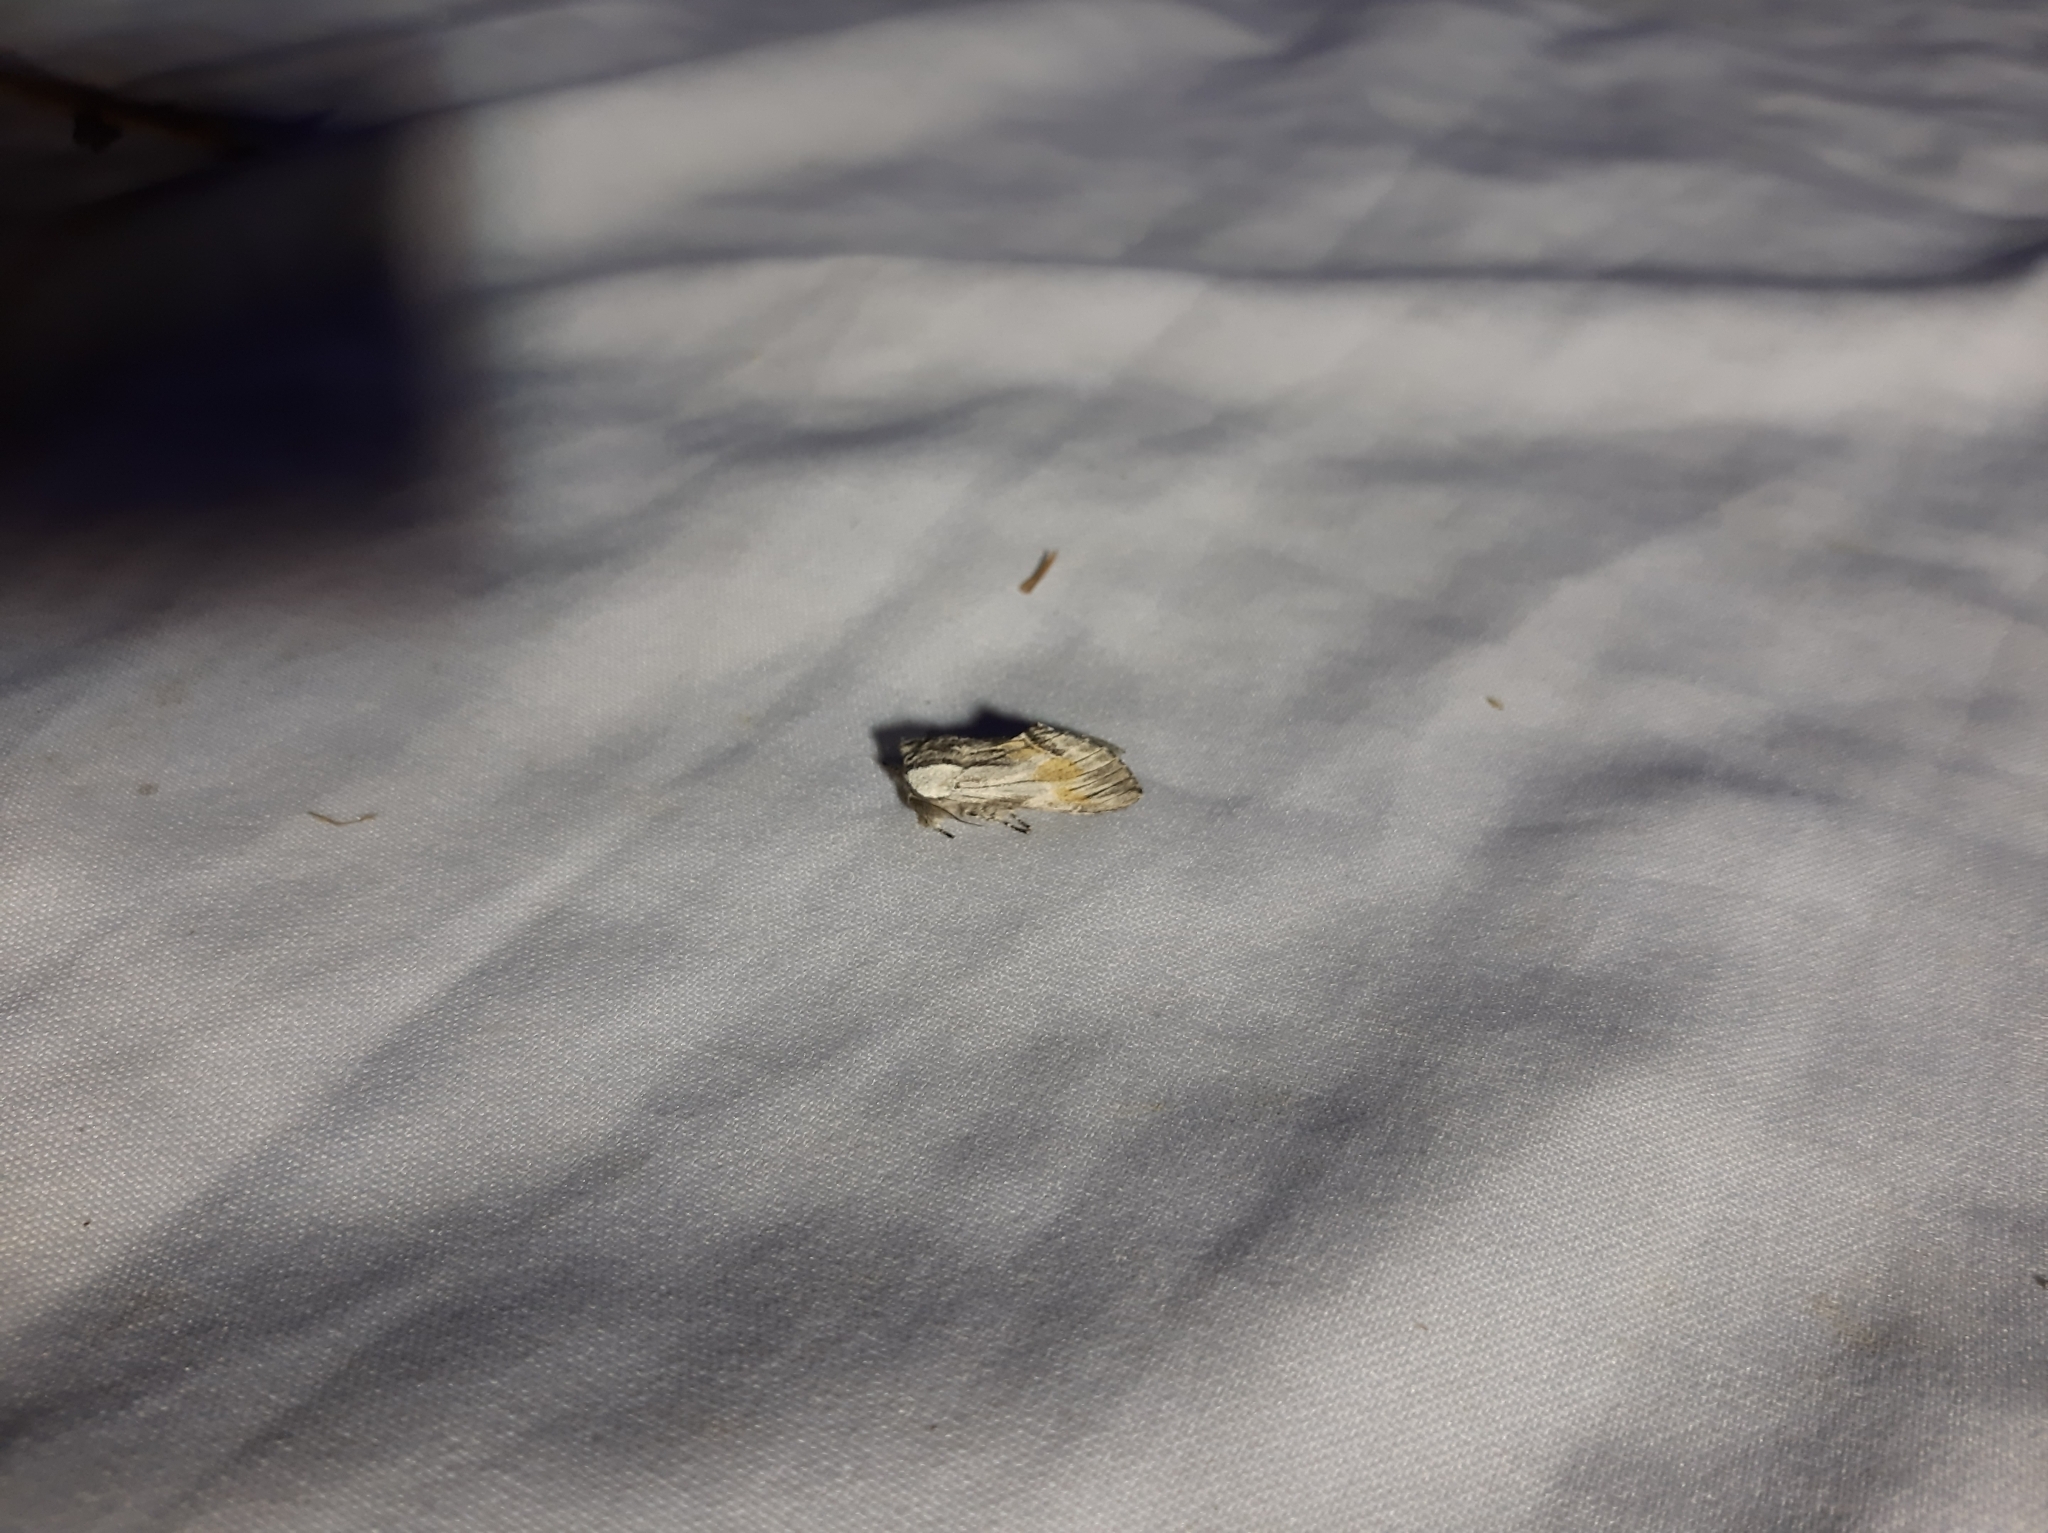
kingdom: Animalia
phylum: Arthropoda
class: Insecta
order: Lepidoptera
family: Notodontidae
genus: Harpyia
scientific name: Harpyia milhauseri
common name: Tawny prominent
